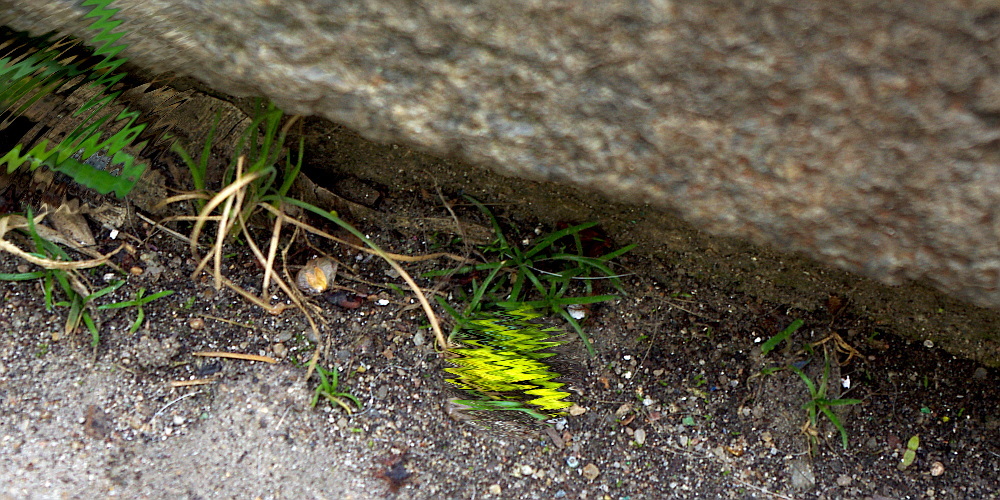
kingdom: Plantae
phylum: Tracheophyta
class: Magnoliopsida
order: Caryophyllales
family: Caryophyllaceae
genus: Sagina
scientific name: Sagina procumbens
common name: Procumbent pearlwort
